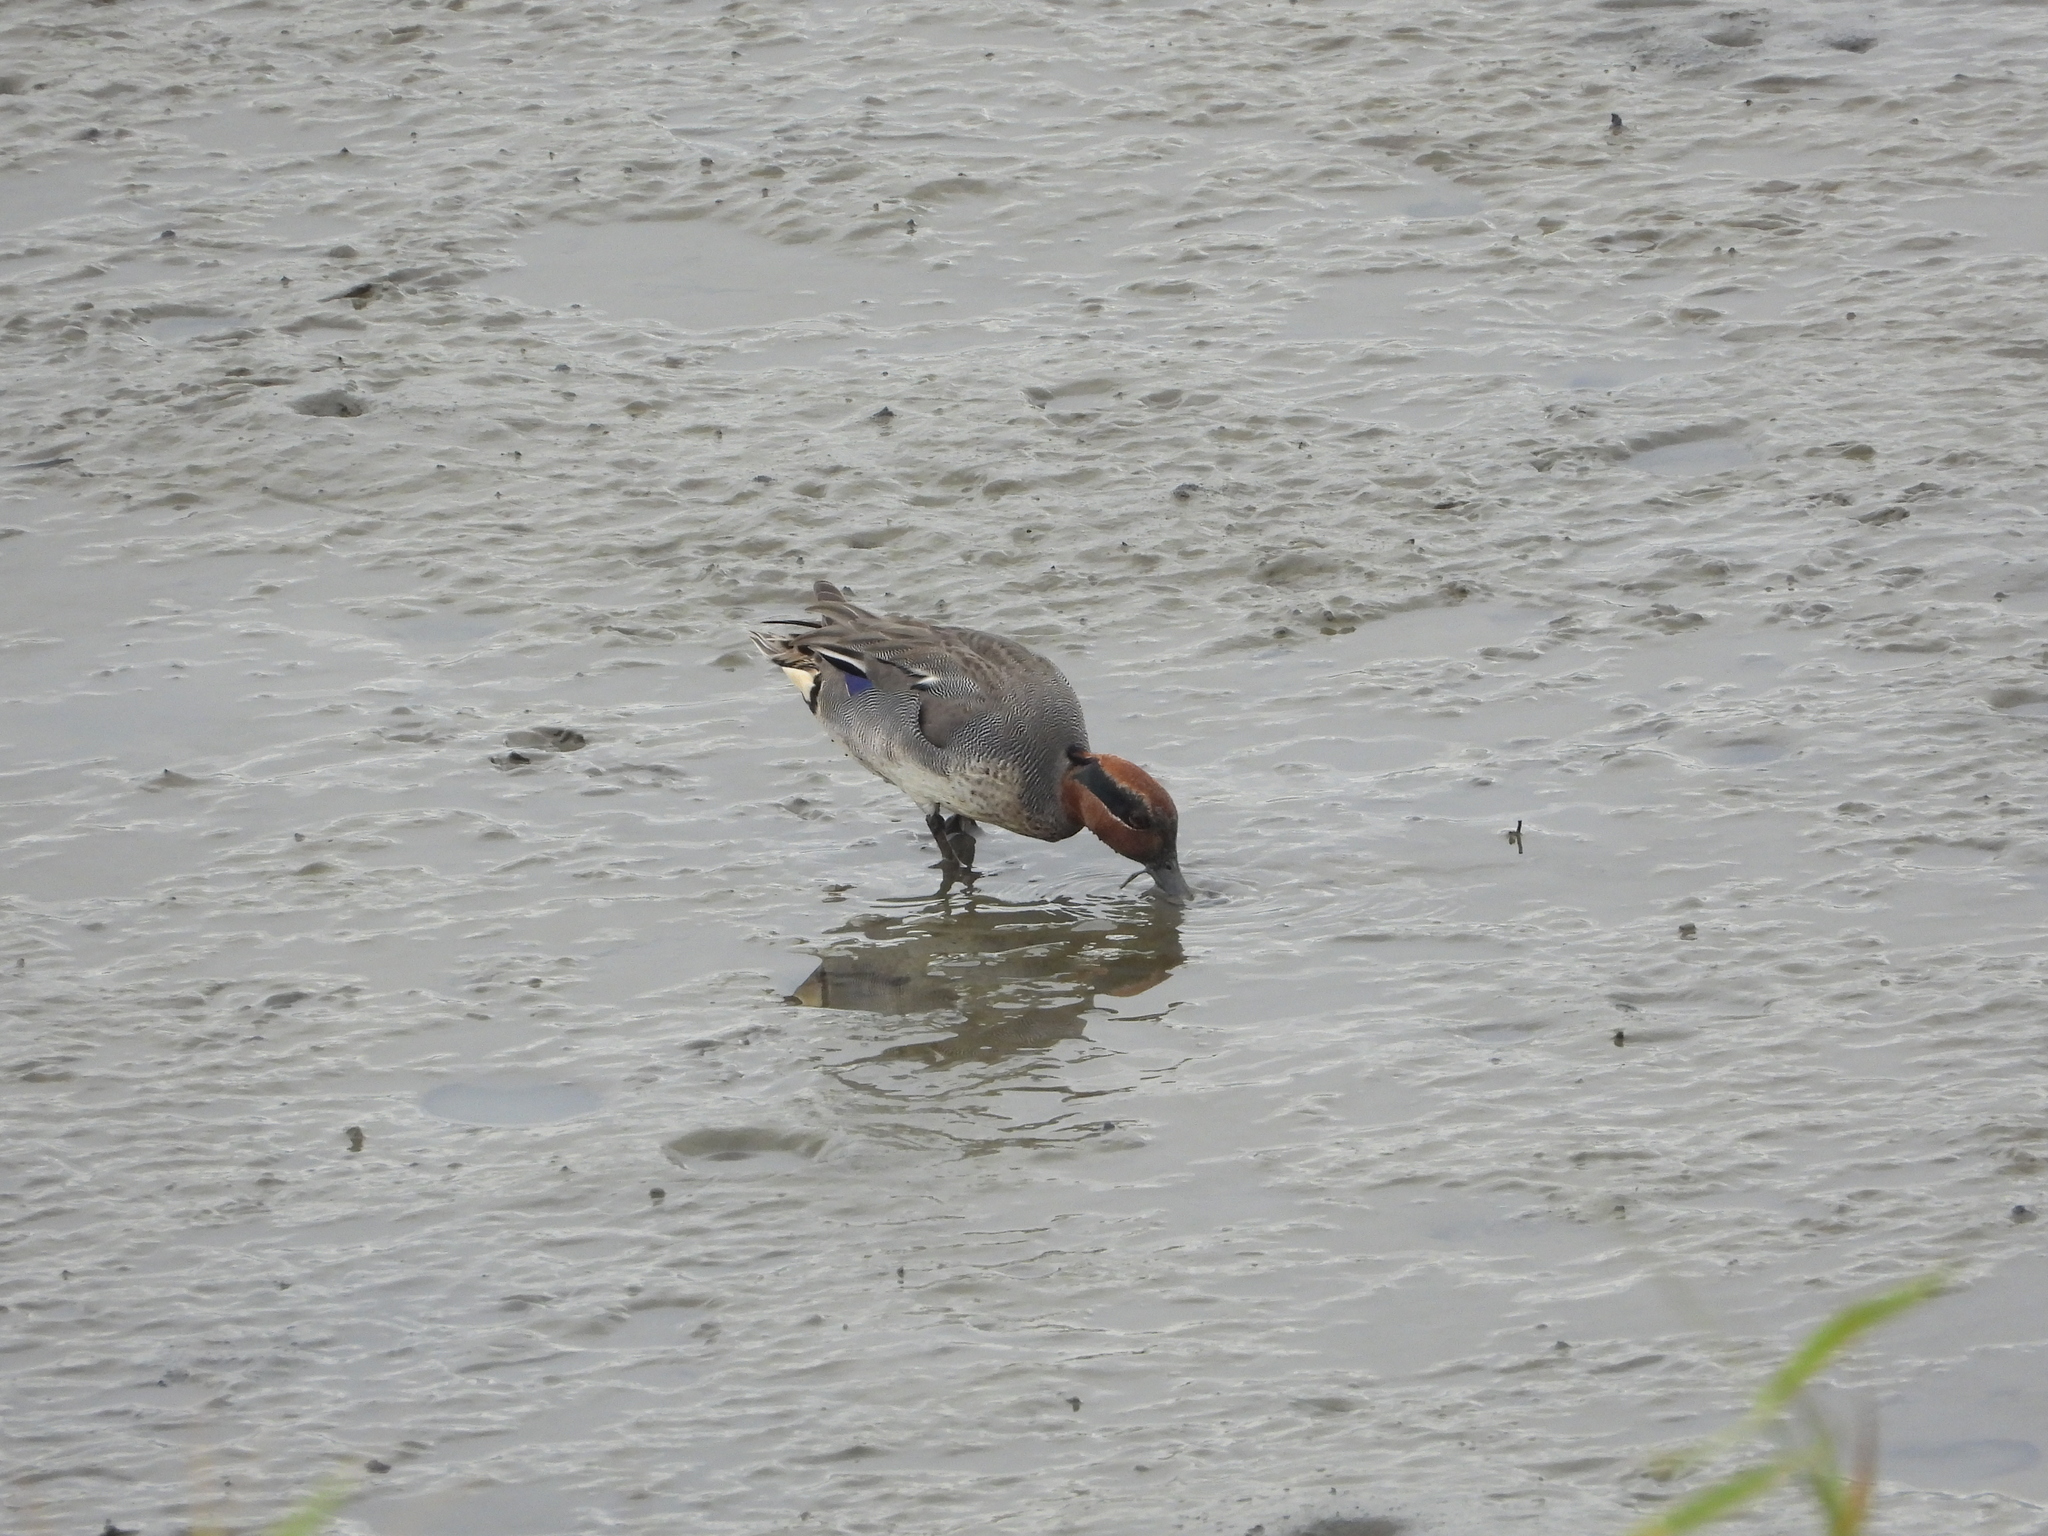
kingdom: Animalia
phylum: Chordata
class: Aves
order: Anseriformes
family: Anatidae
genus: Anas
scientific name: Anas crecca
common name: Eurasian teal
